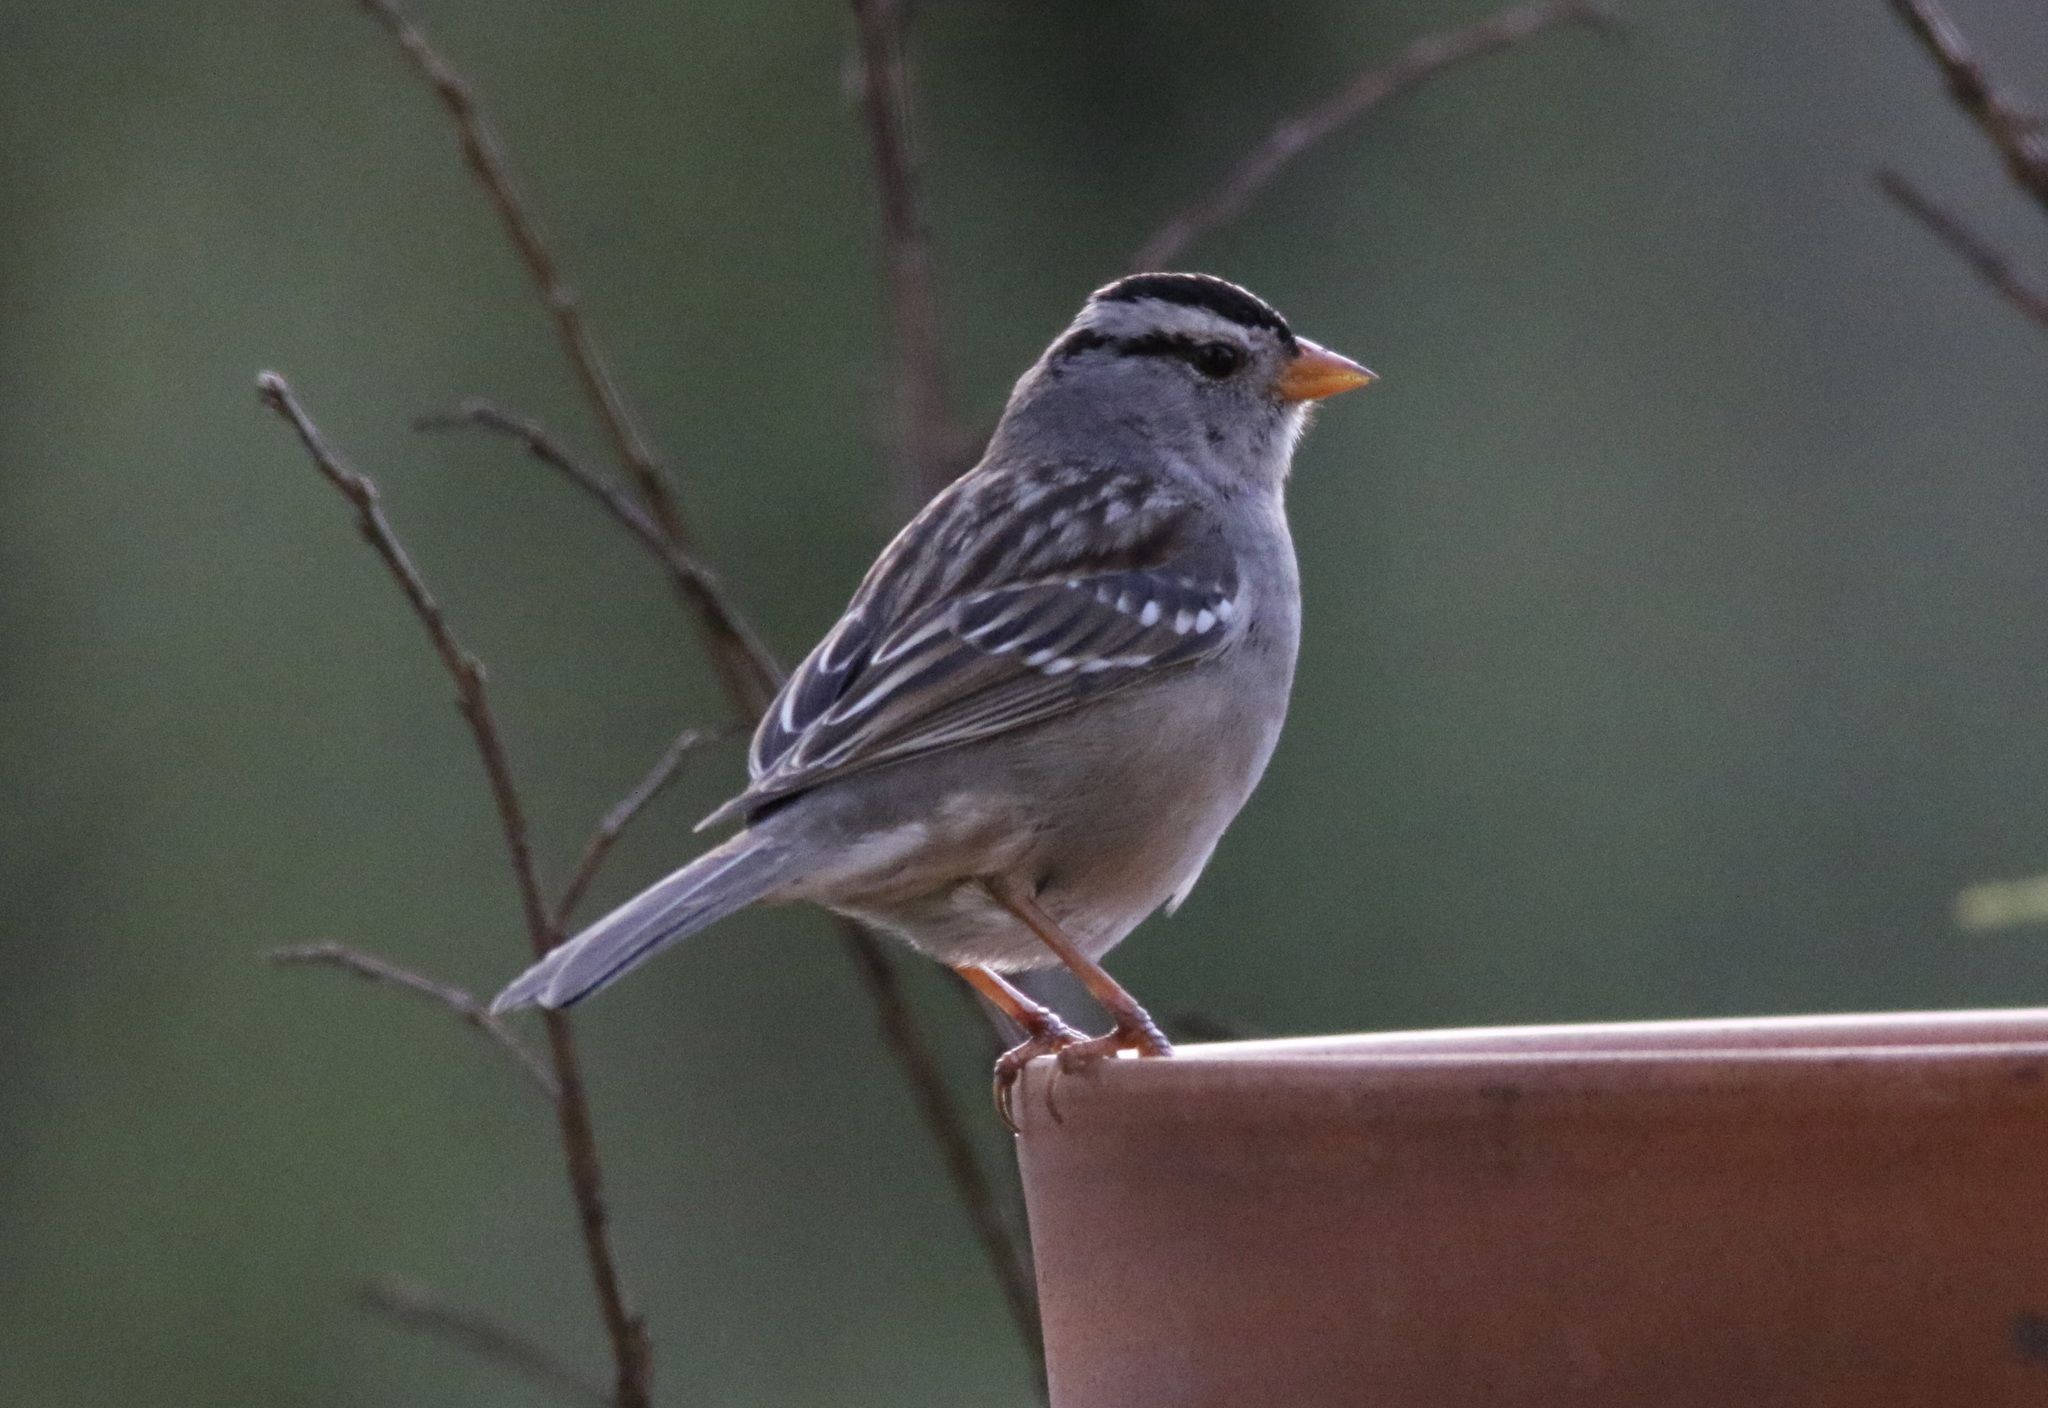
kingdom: Animalia
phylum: Chordata
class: Aves
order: Passeriformes
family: Passerellidae
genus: Zonotrichia
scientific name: Zonotrichia leucophrys
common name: White-crowned sparrow
